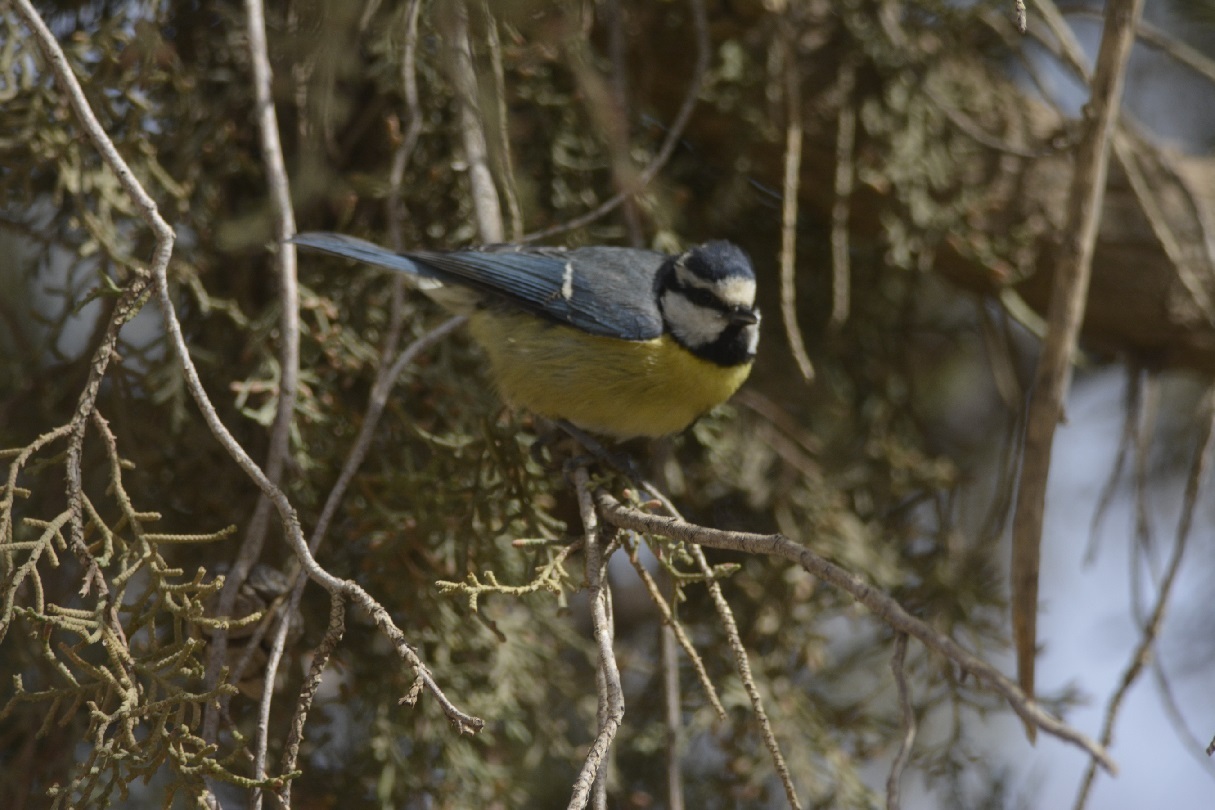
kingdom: Animalia
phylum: Chordata
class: Aves
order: Passeriformes
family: Paridae
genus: Cyanistes
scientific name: Cyanistes teneriffae
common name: African blue tit
